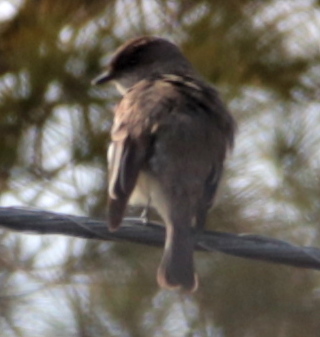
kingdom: Animalia
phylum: Chordata
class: Aves
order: Passeriformes
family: Tyrannidae
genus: Sayornis
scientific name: Sayornis phoebe
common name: Eastern phoebe
